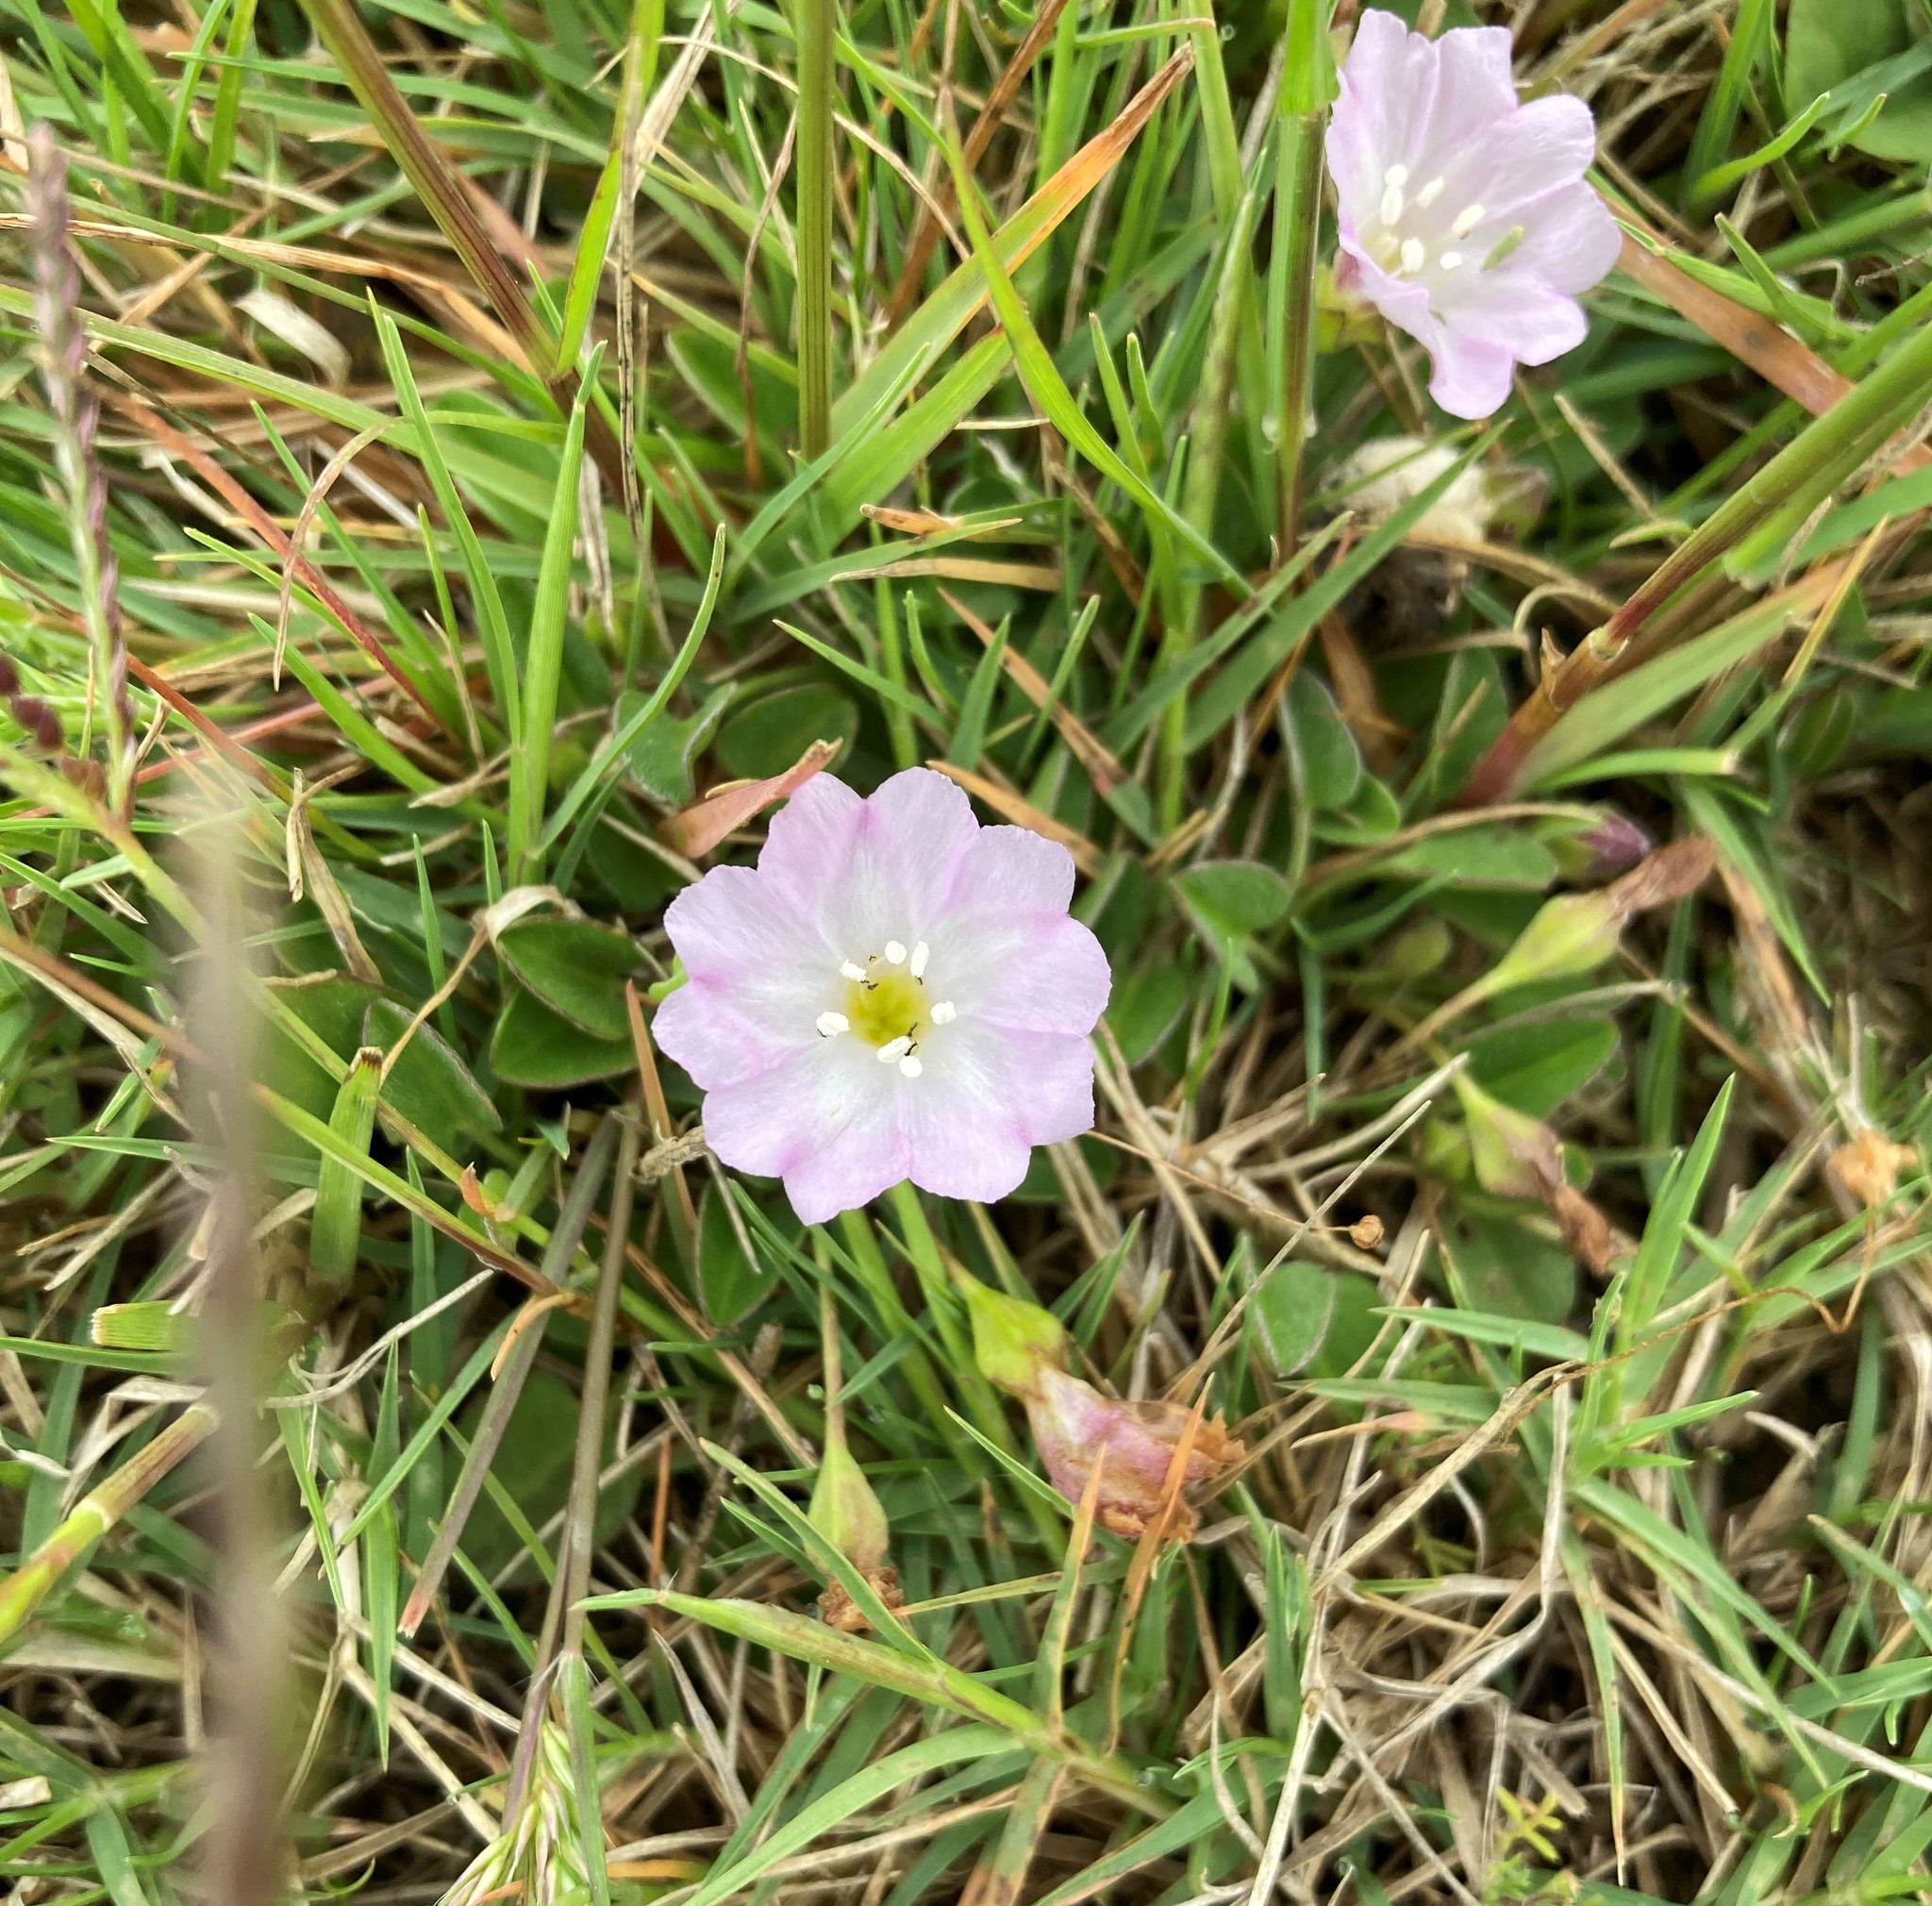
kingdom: Plantae
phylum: Tracheophyta
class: Magnoliopsida
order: Solanales
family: Convolvulaceae
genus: Falkia
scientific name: Falkia repens
